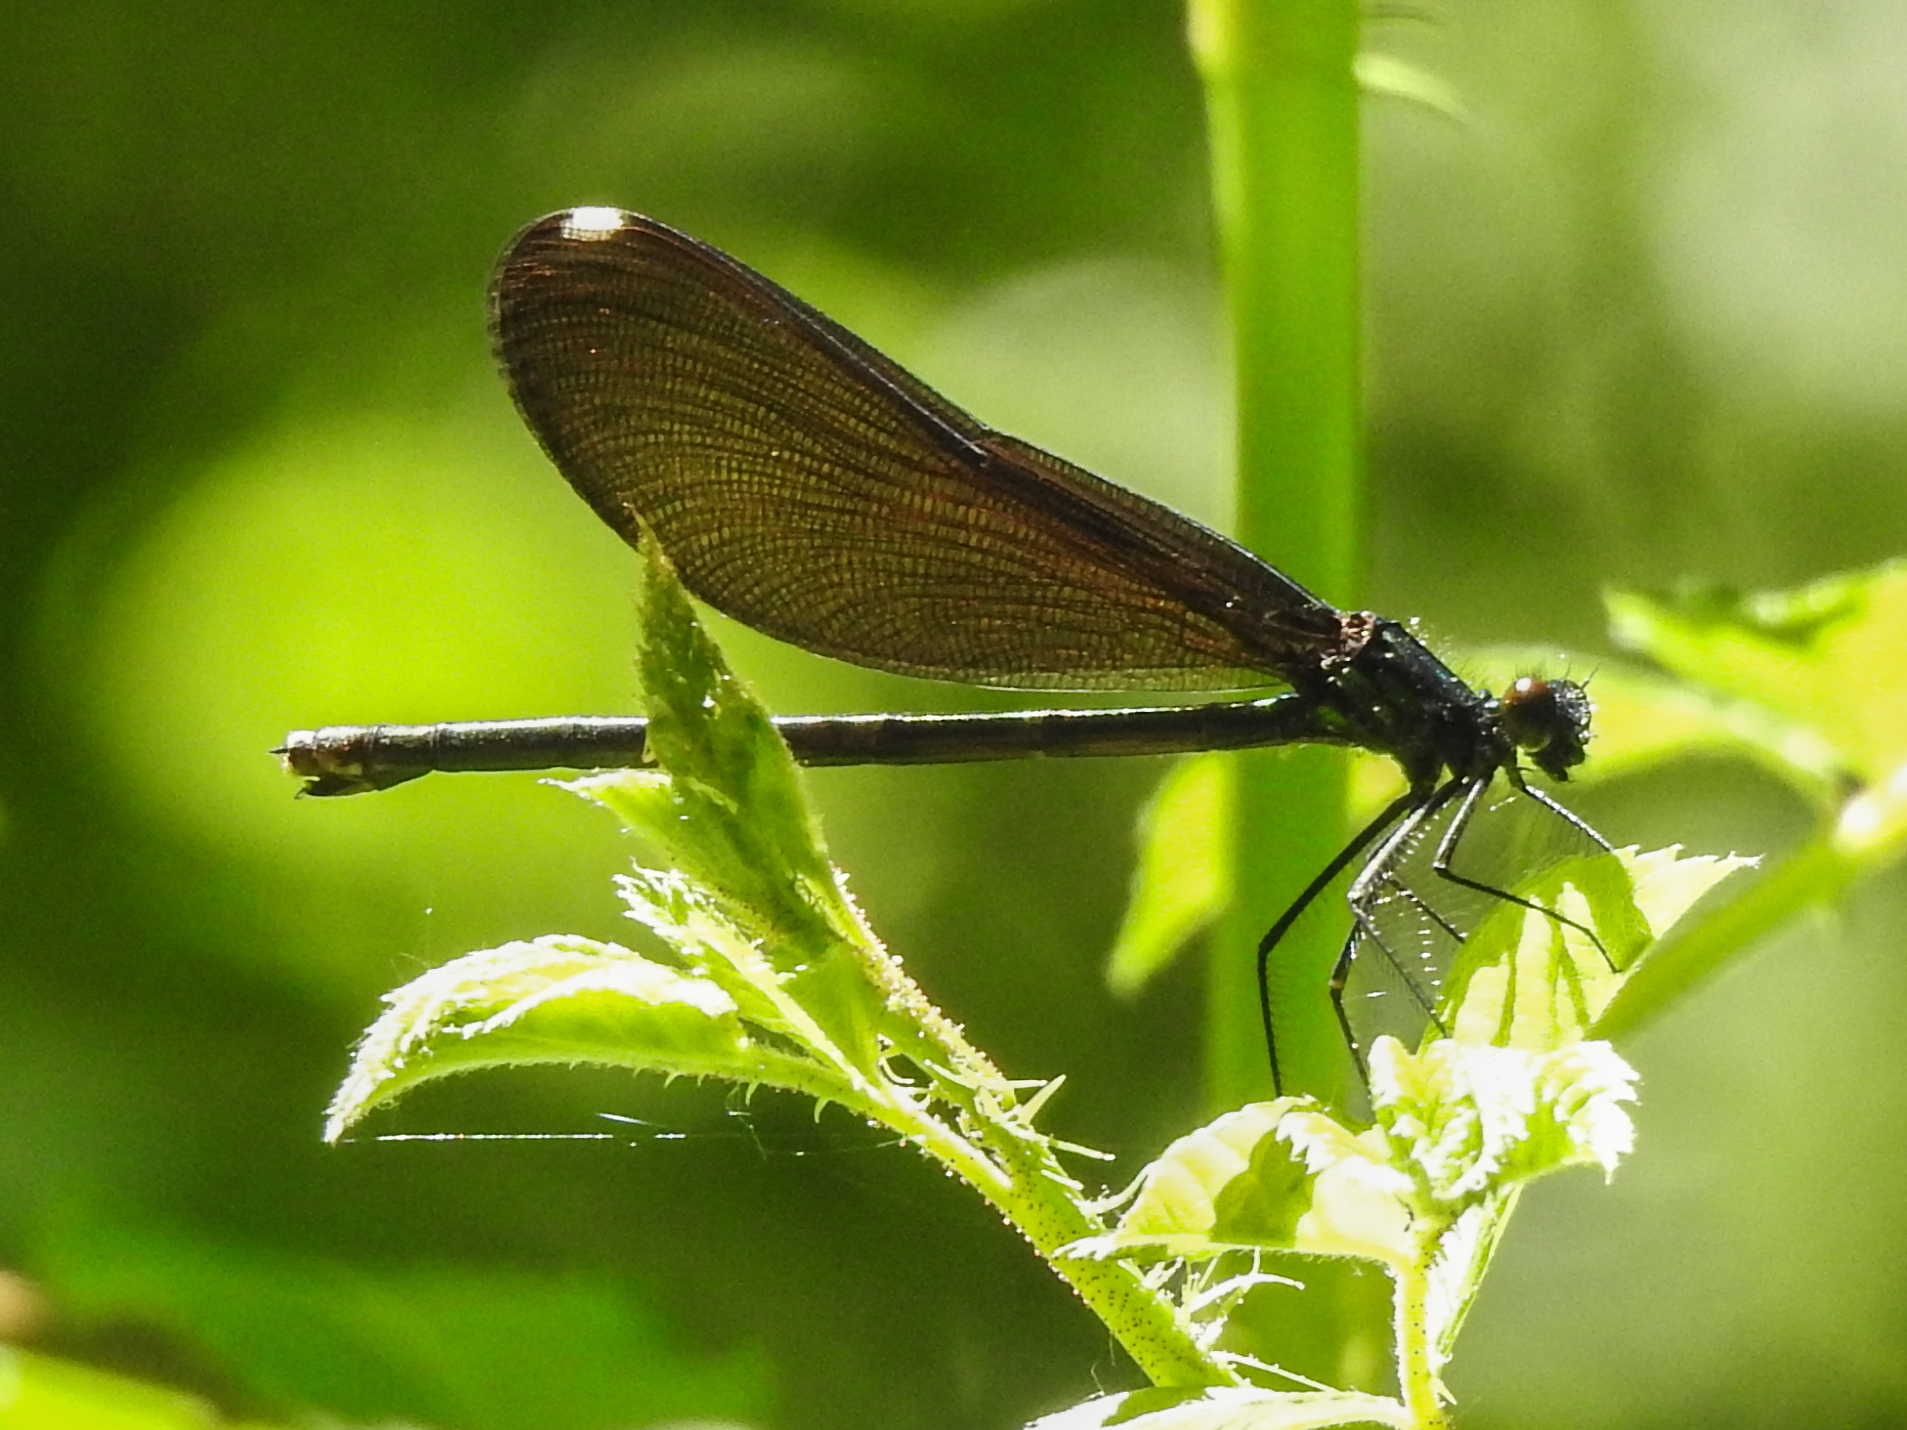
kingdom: Animalia
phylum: Arthropoda
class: Insecta
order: Odonata
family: Calopterygidae
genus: Calopteryx
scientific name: Calopteryx maculata
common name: Ebony jewelwing
